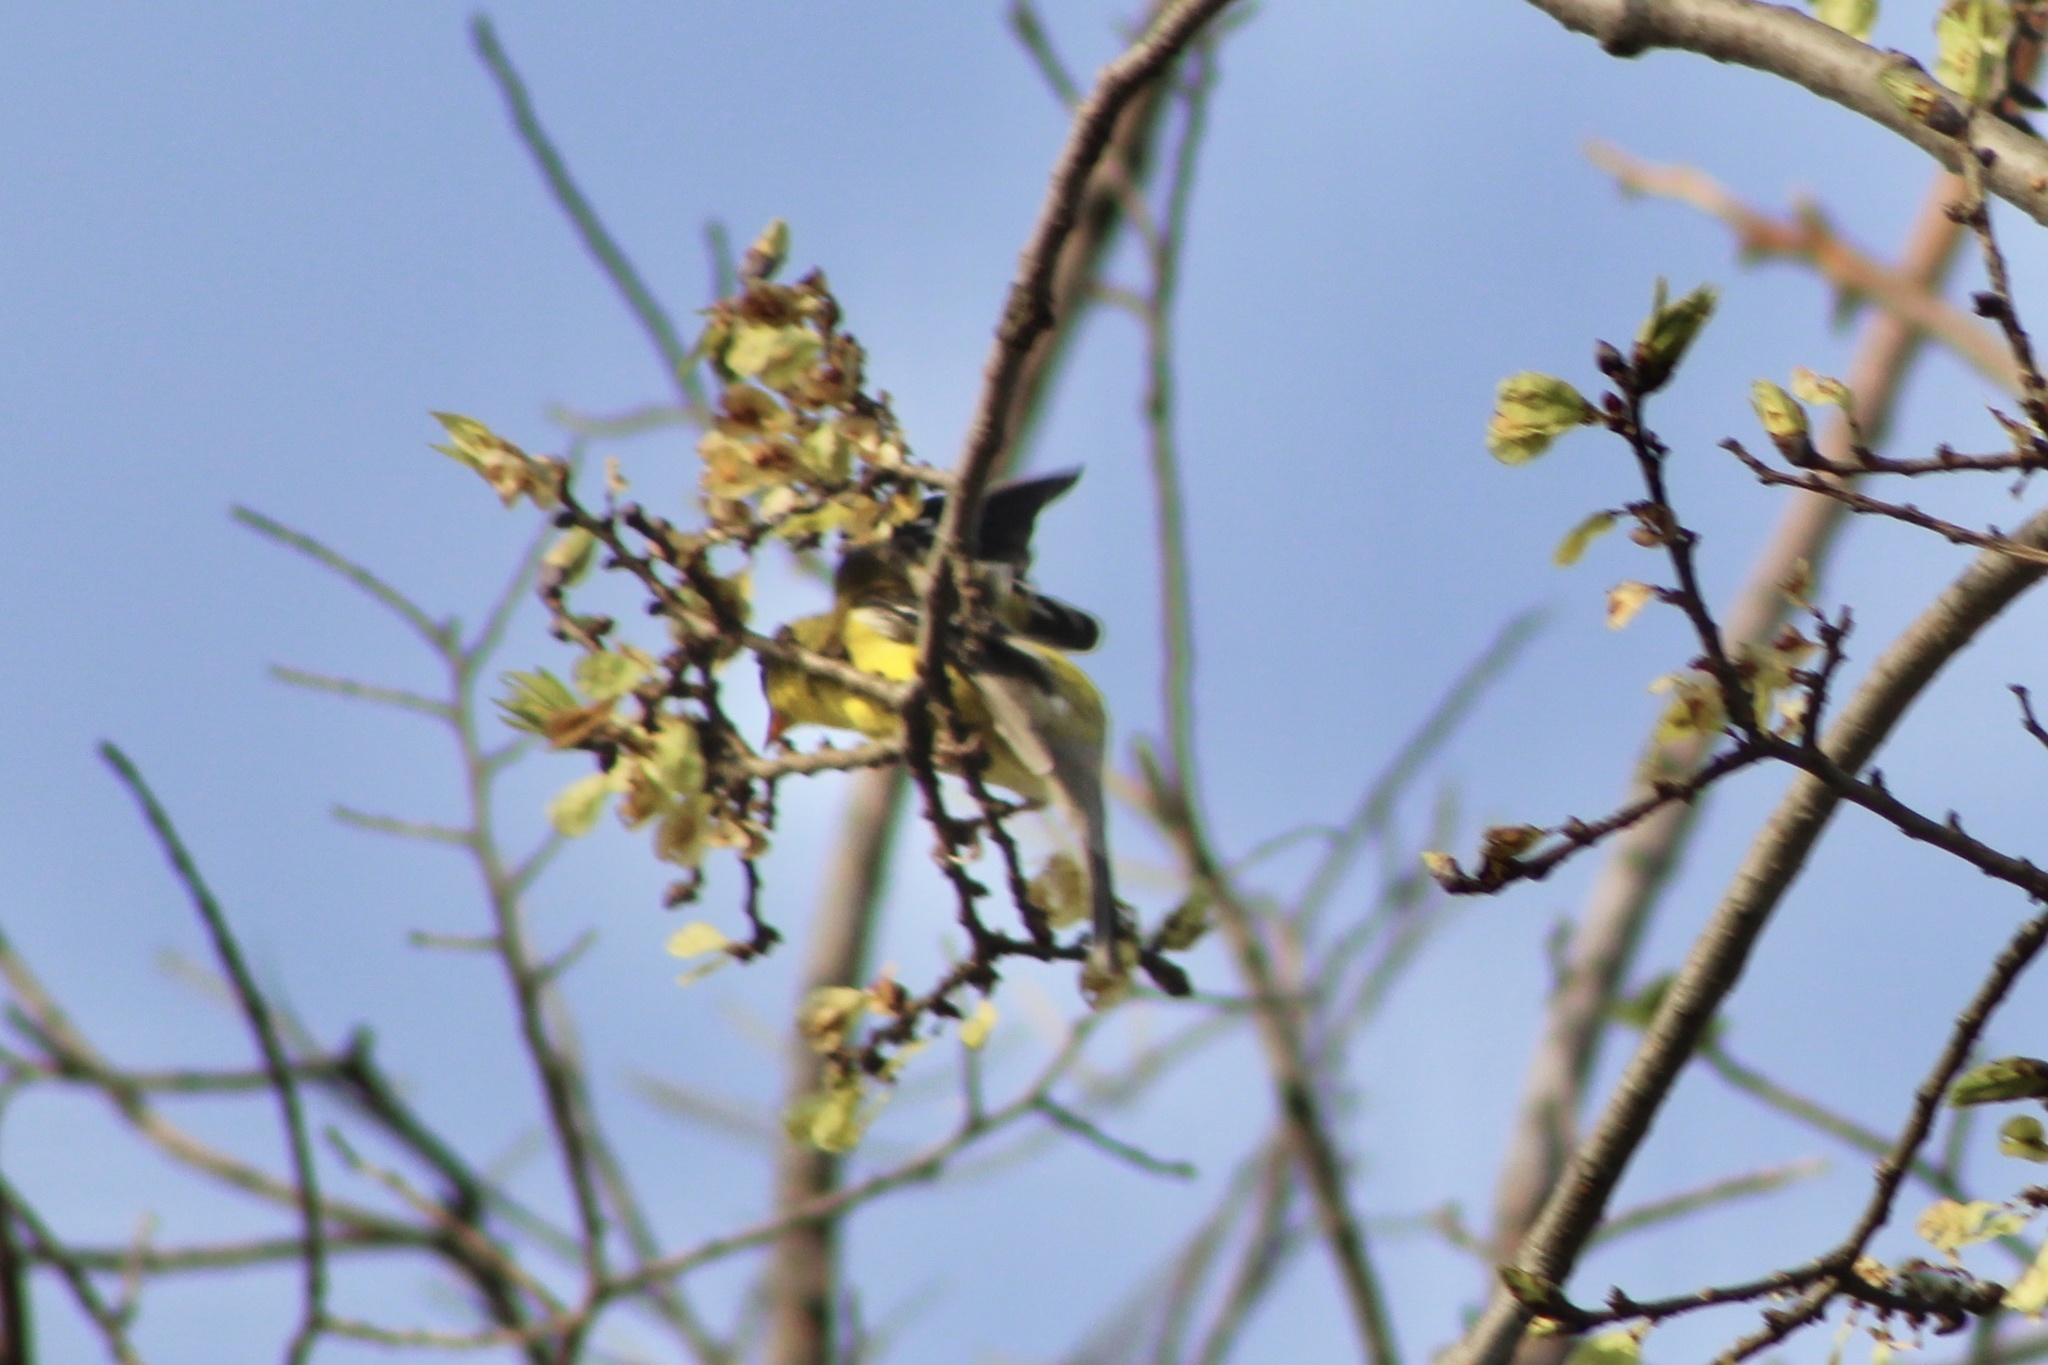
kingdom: Animalia
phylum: Chordata
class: Aves
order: Passeriformes
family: Fringillidae
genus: Spinus
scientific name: Spinus tristis
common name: American goldfinch
